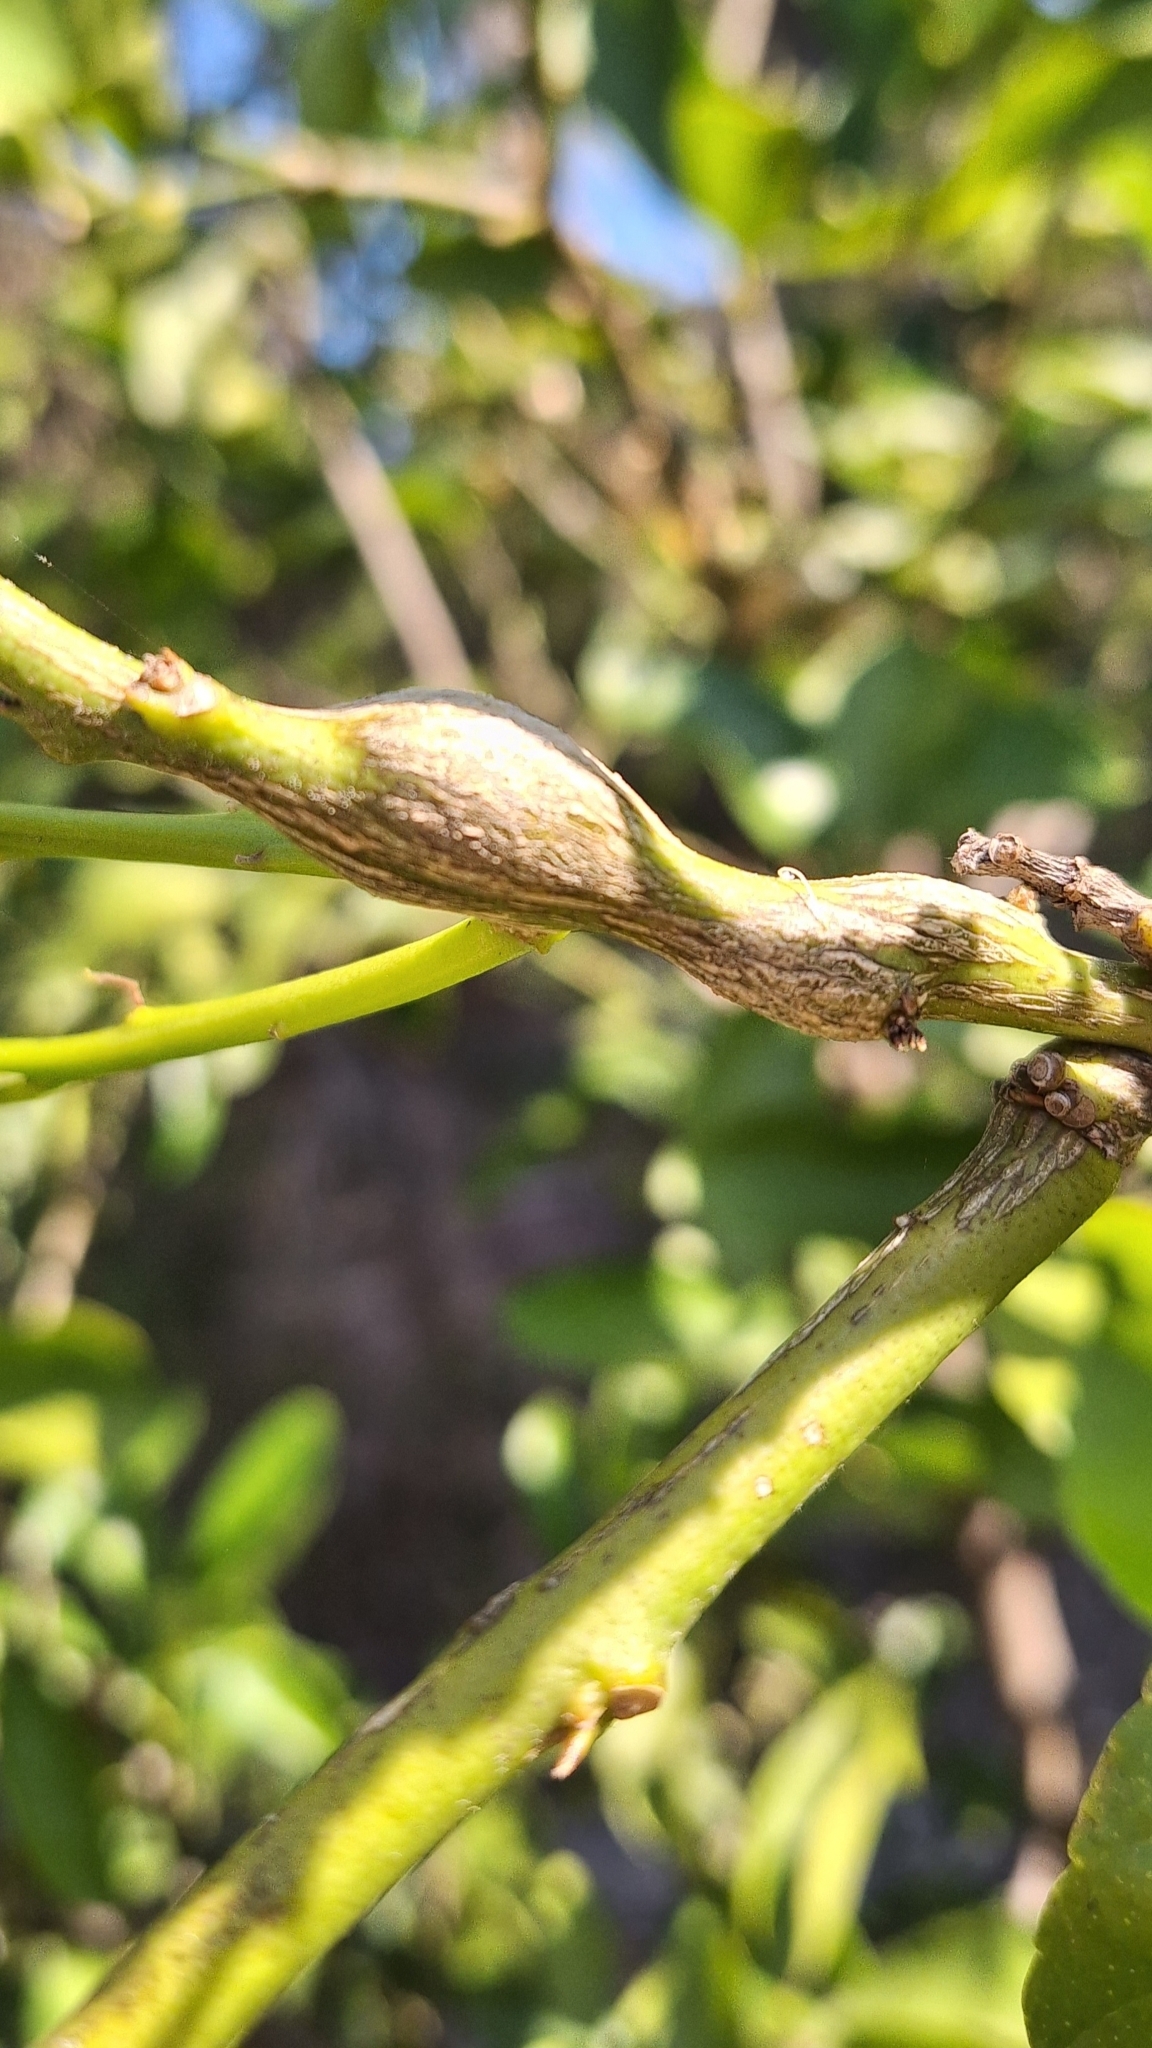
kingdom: Animalia
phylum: Arthropoda
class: Insecta
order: Hymenoptera
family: Eurytomidae
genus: Bruchophagus
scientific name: Bruchophagus fellis
